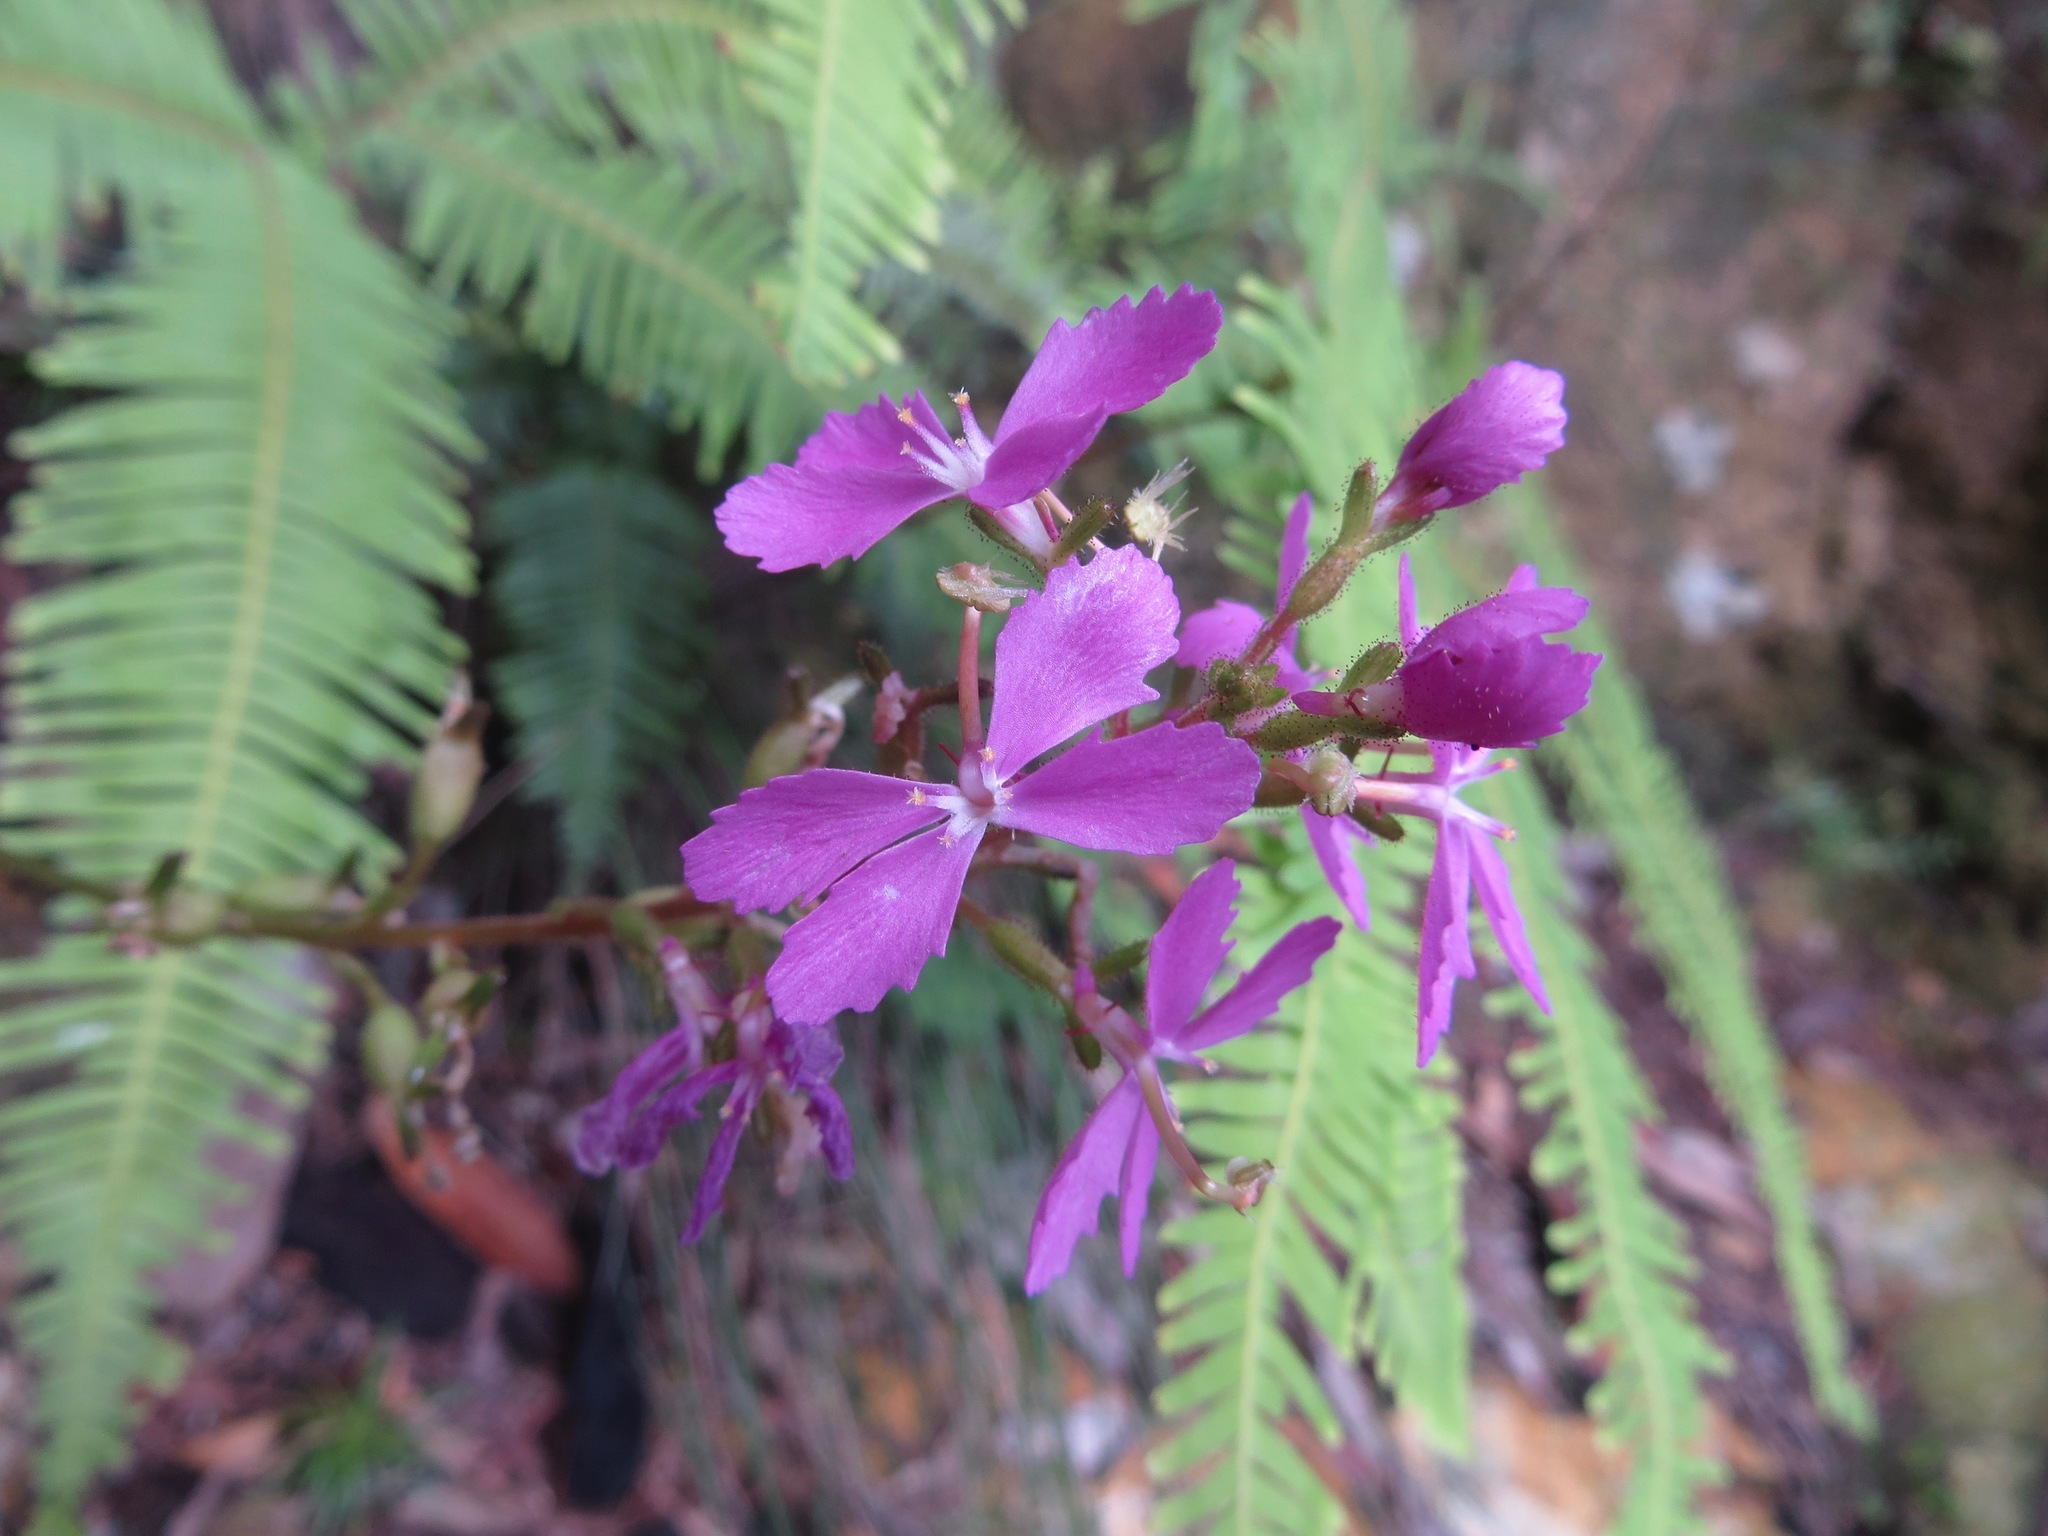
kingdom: Plantae
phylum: Tracheophyta
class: Magnoliopsida
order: Asterales
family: Stylidiaceae
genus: Stylidium
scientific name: Stylidium productum
